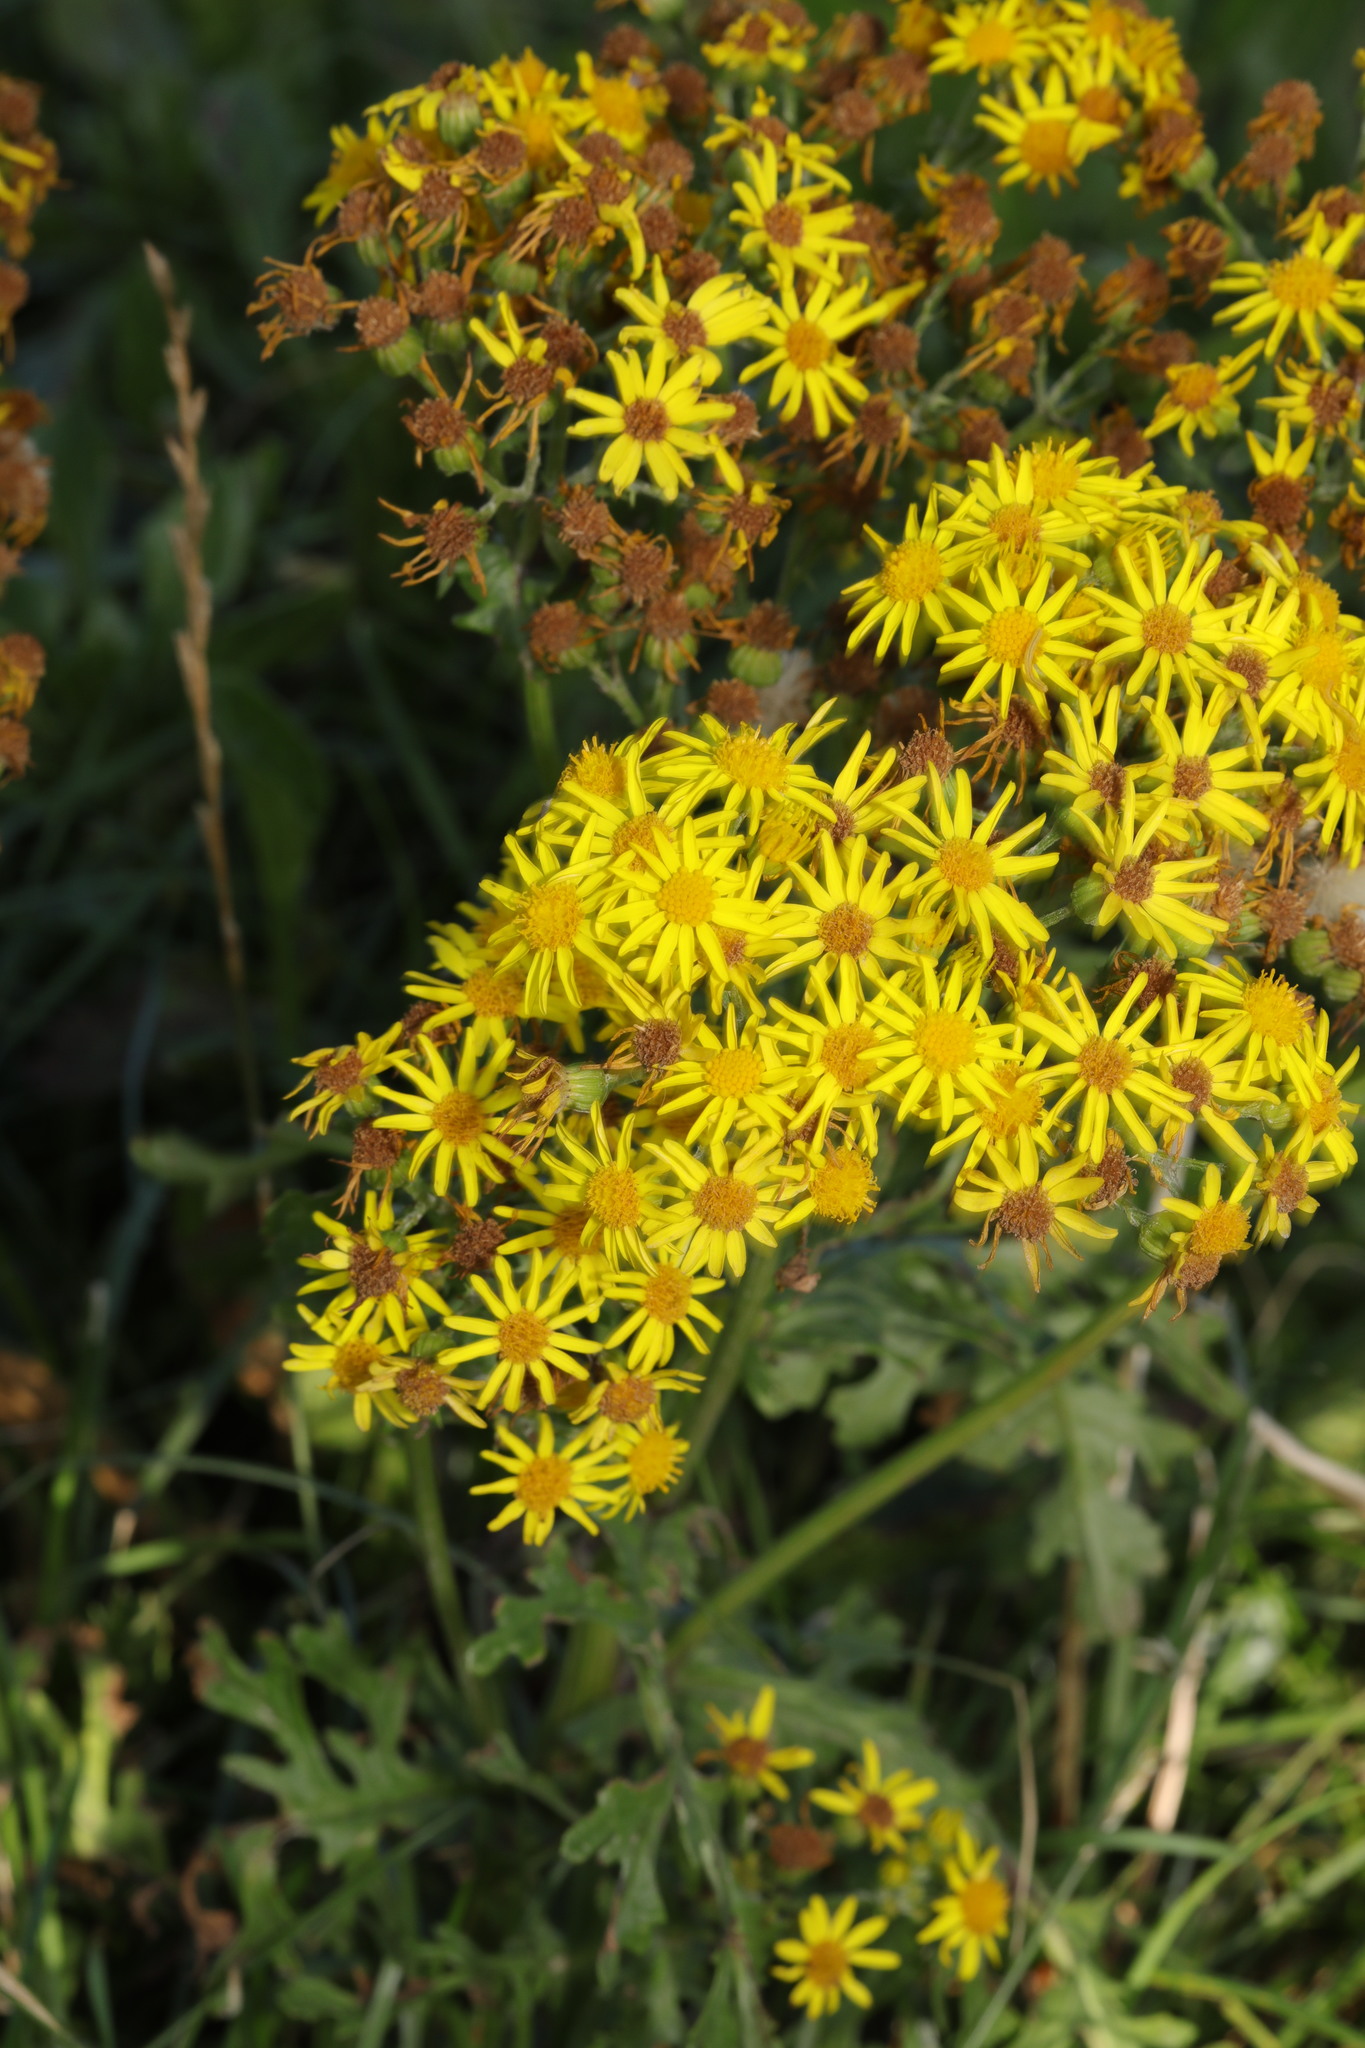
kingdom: Plantae
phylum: Tracheophyta
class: Magnoliopsida
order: Asterales
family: Asteraceae
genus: Jacobaea
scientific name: Jacobaea vulgaris
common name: Stinking willie
